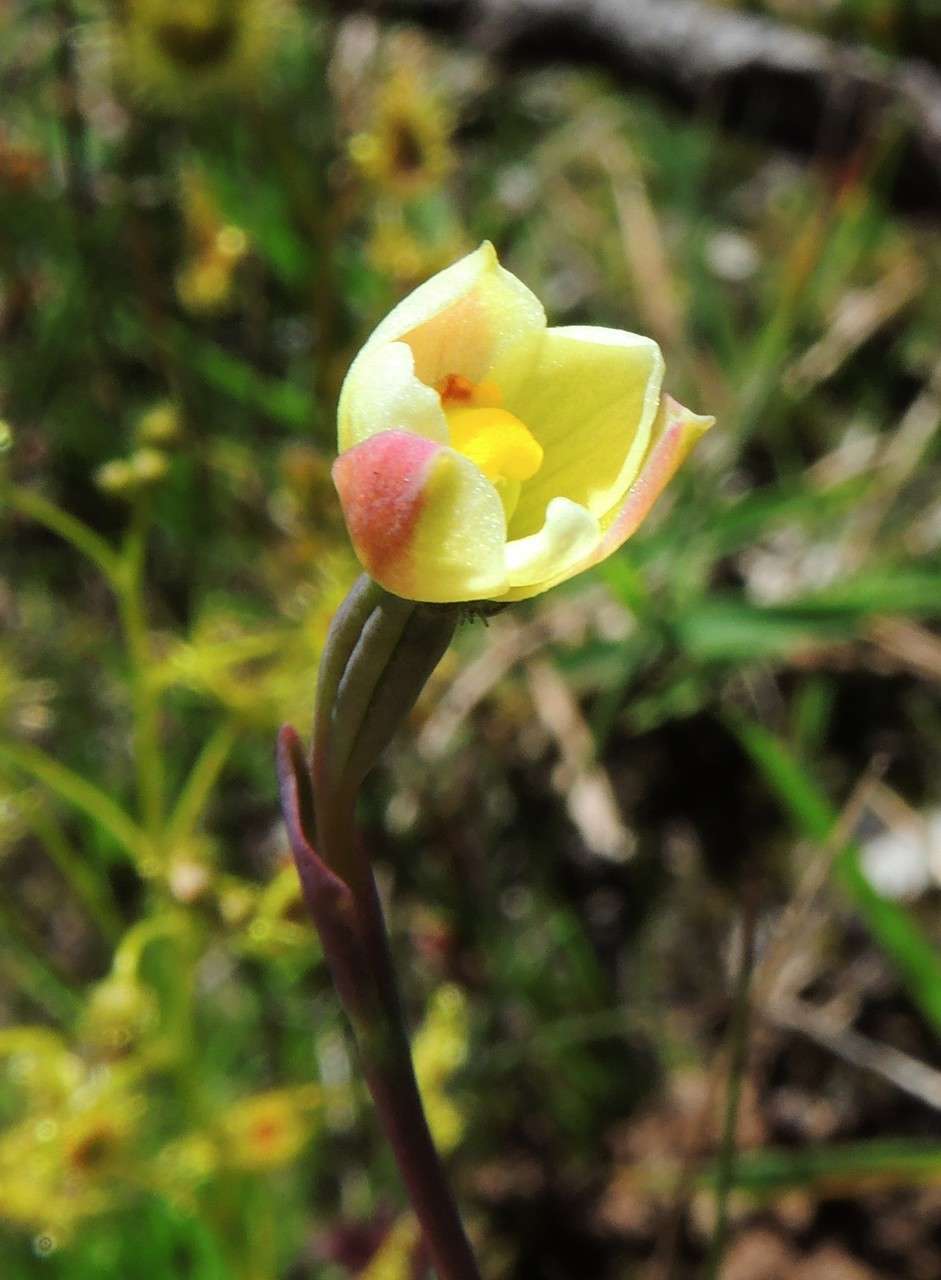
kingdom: Plantae
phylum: Tracheophyta
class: Liliopsida
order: Asparagales
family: Orchidaceae
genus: Thelymitra
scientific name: Thelymitra flexuosa
